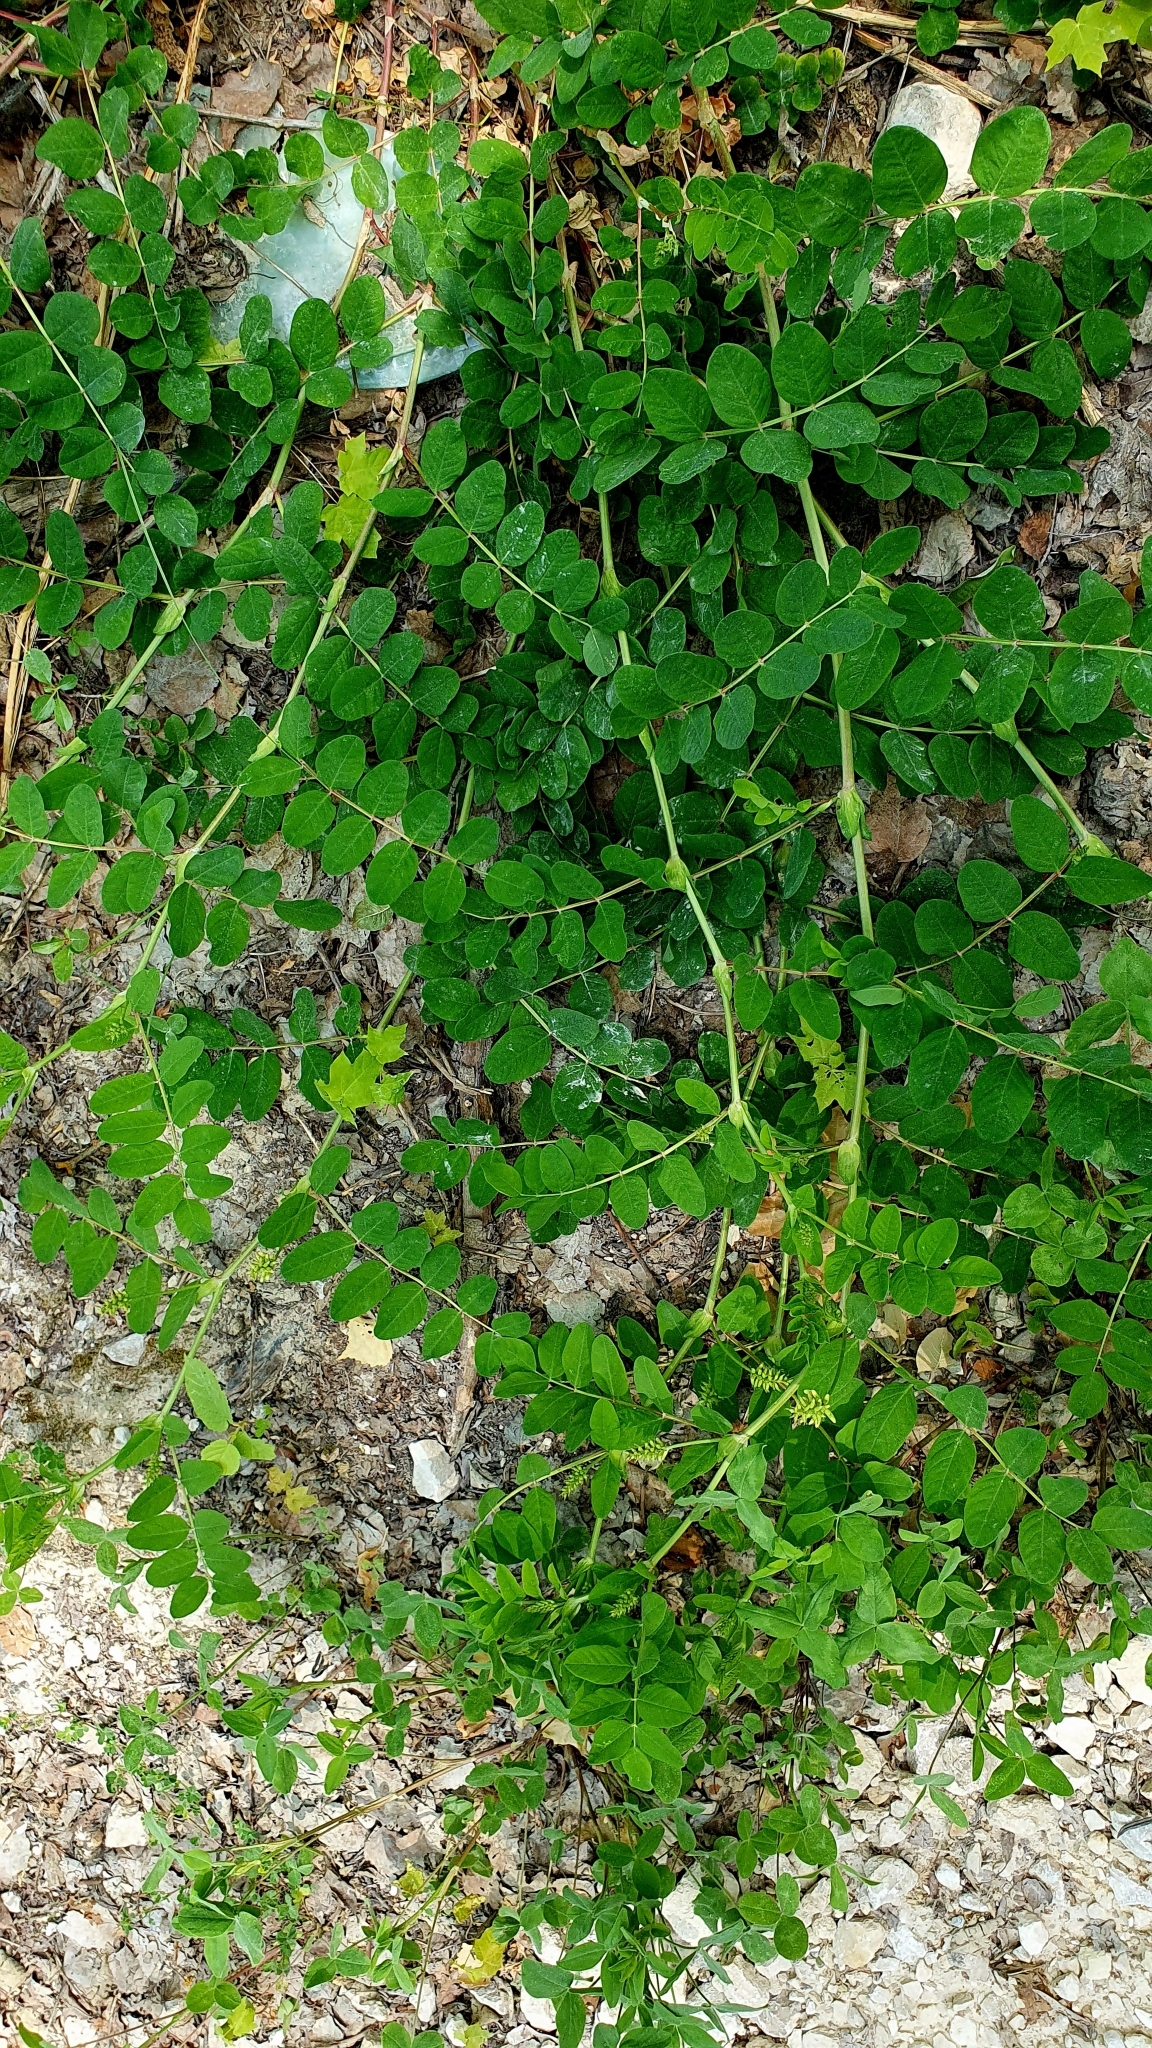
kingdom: Plantae
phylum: Tracheophyta
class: Magnoliopsida
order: Fabales
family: Fabaceae
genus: Astragalus
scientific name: Astragalus glycyphyllos
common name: Wild liquorice
